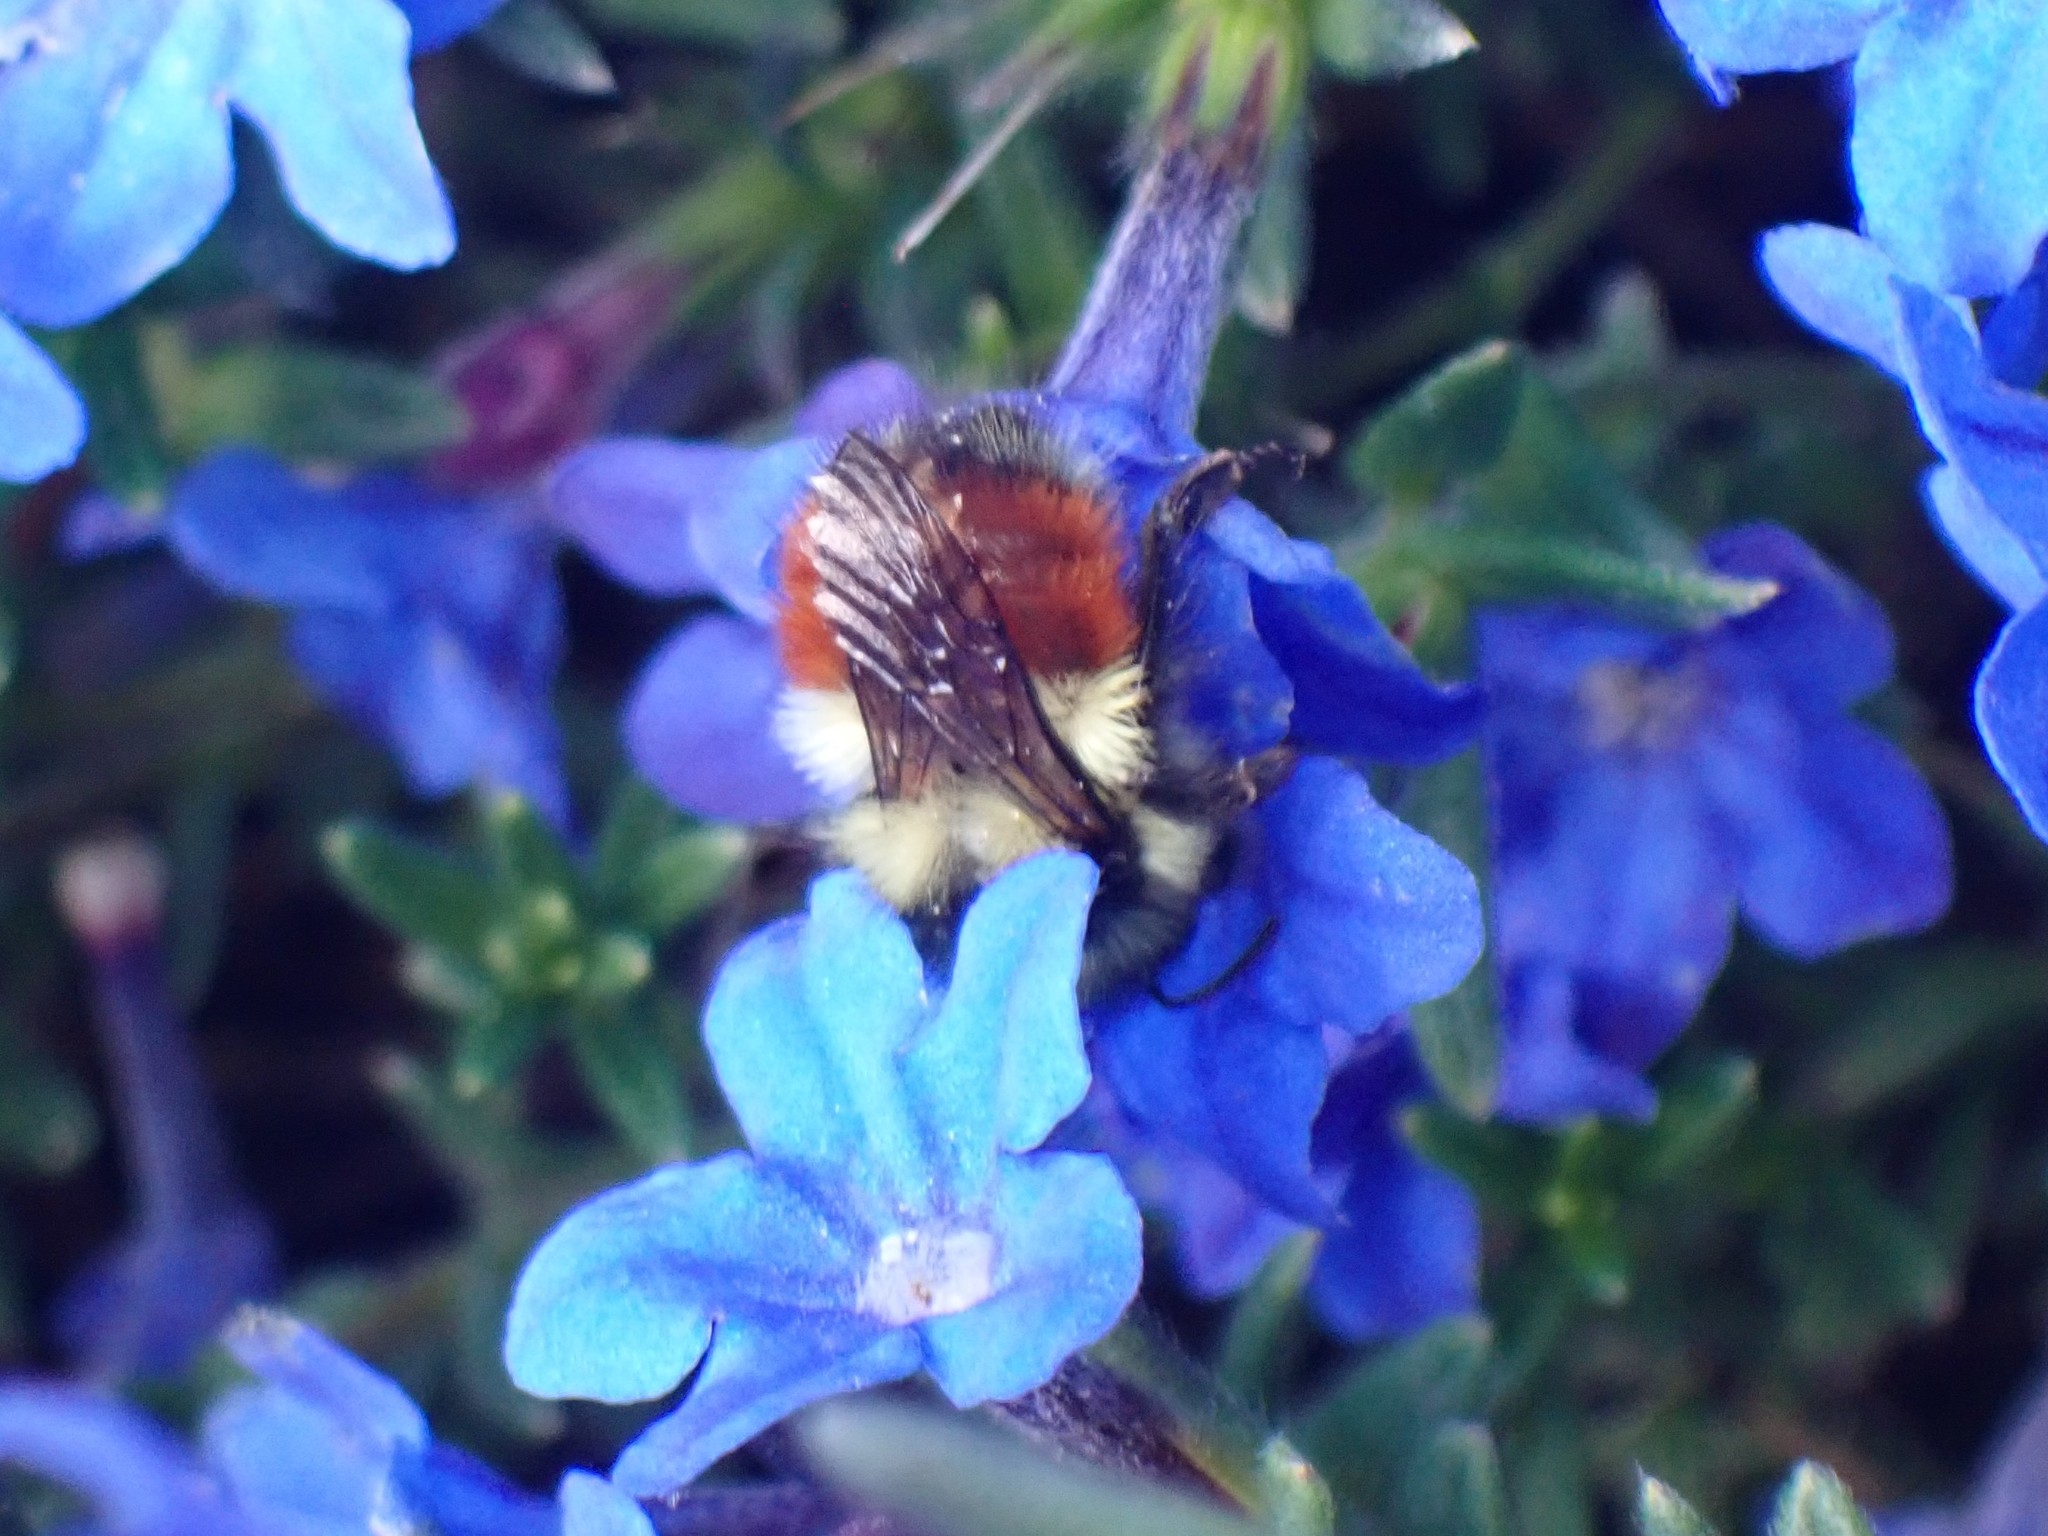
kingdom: Animalia
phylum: Arthropoda
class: Insecta
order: Hymenoptera
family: Apidae
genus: Bombus
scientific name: Bombus melanopygus
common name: Black tail bumble bee
